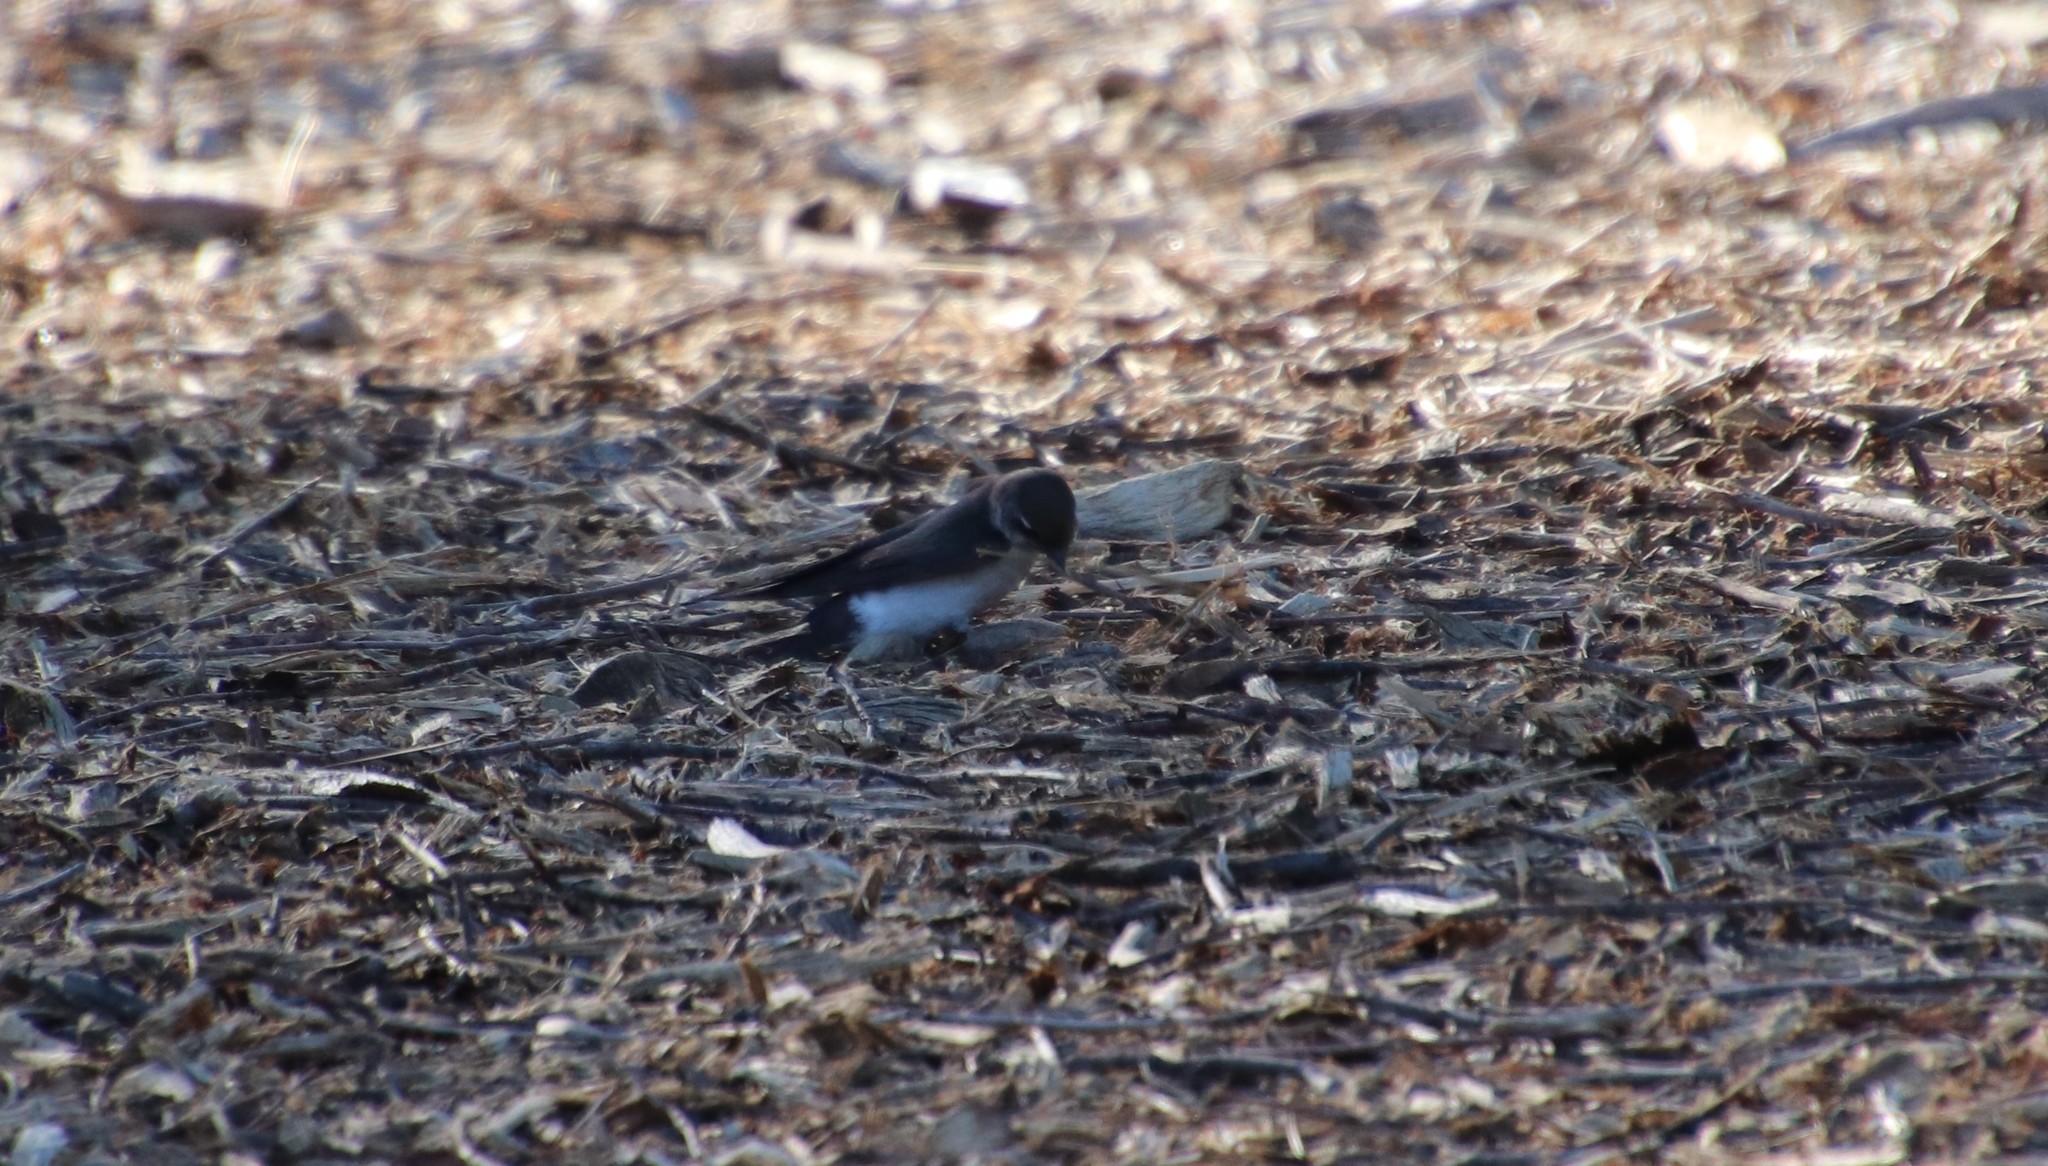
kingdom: Animalia
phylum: Chordata
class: Aves
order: Passeriformes
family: Hirundinidae
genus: Tachycineta
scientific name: Tachycineta thalassina
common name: Violet-green swallow
